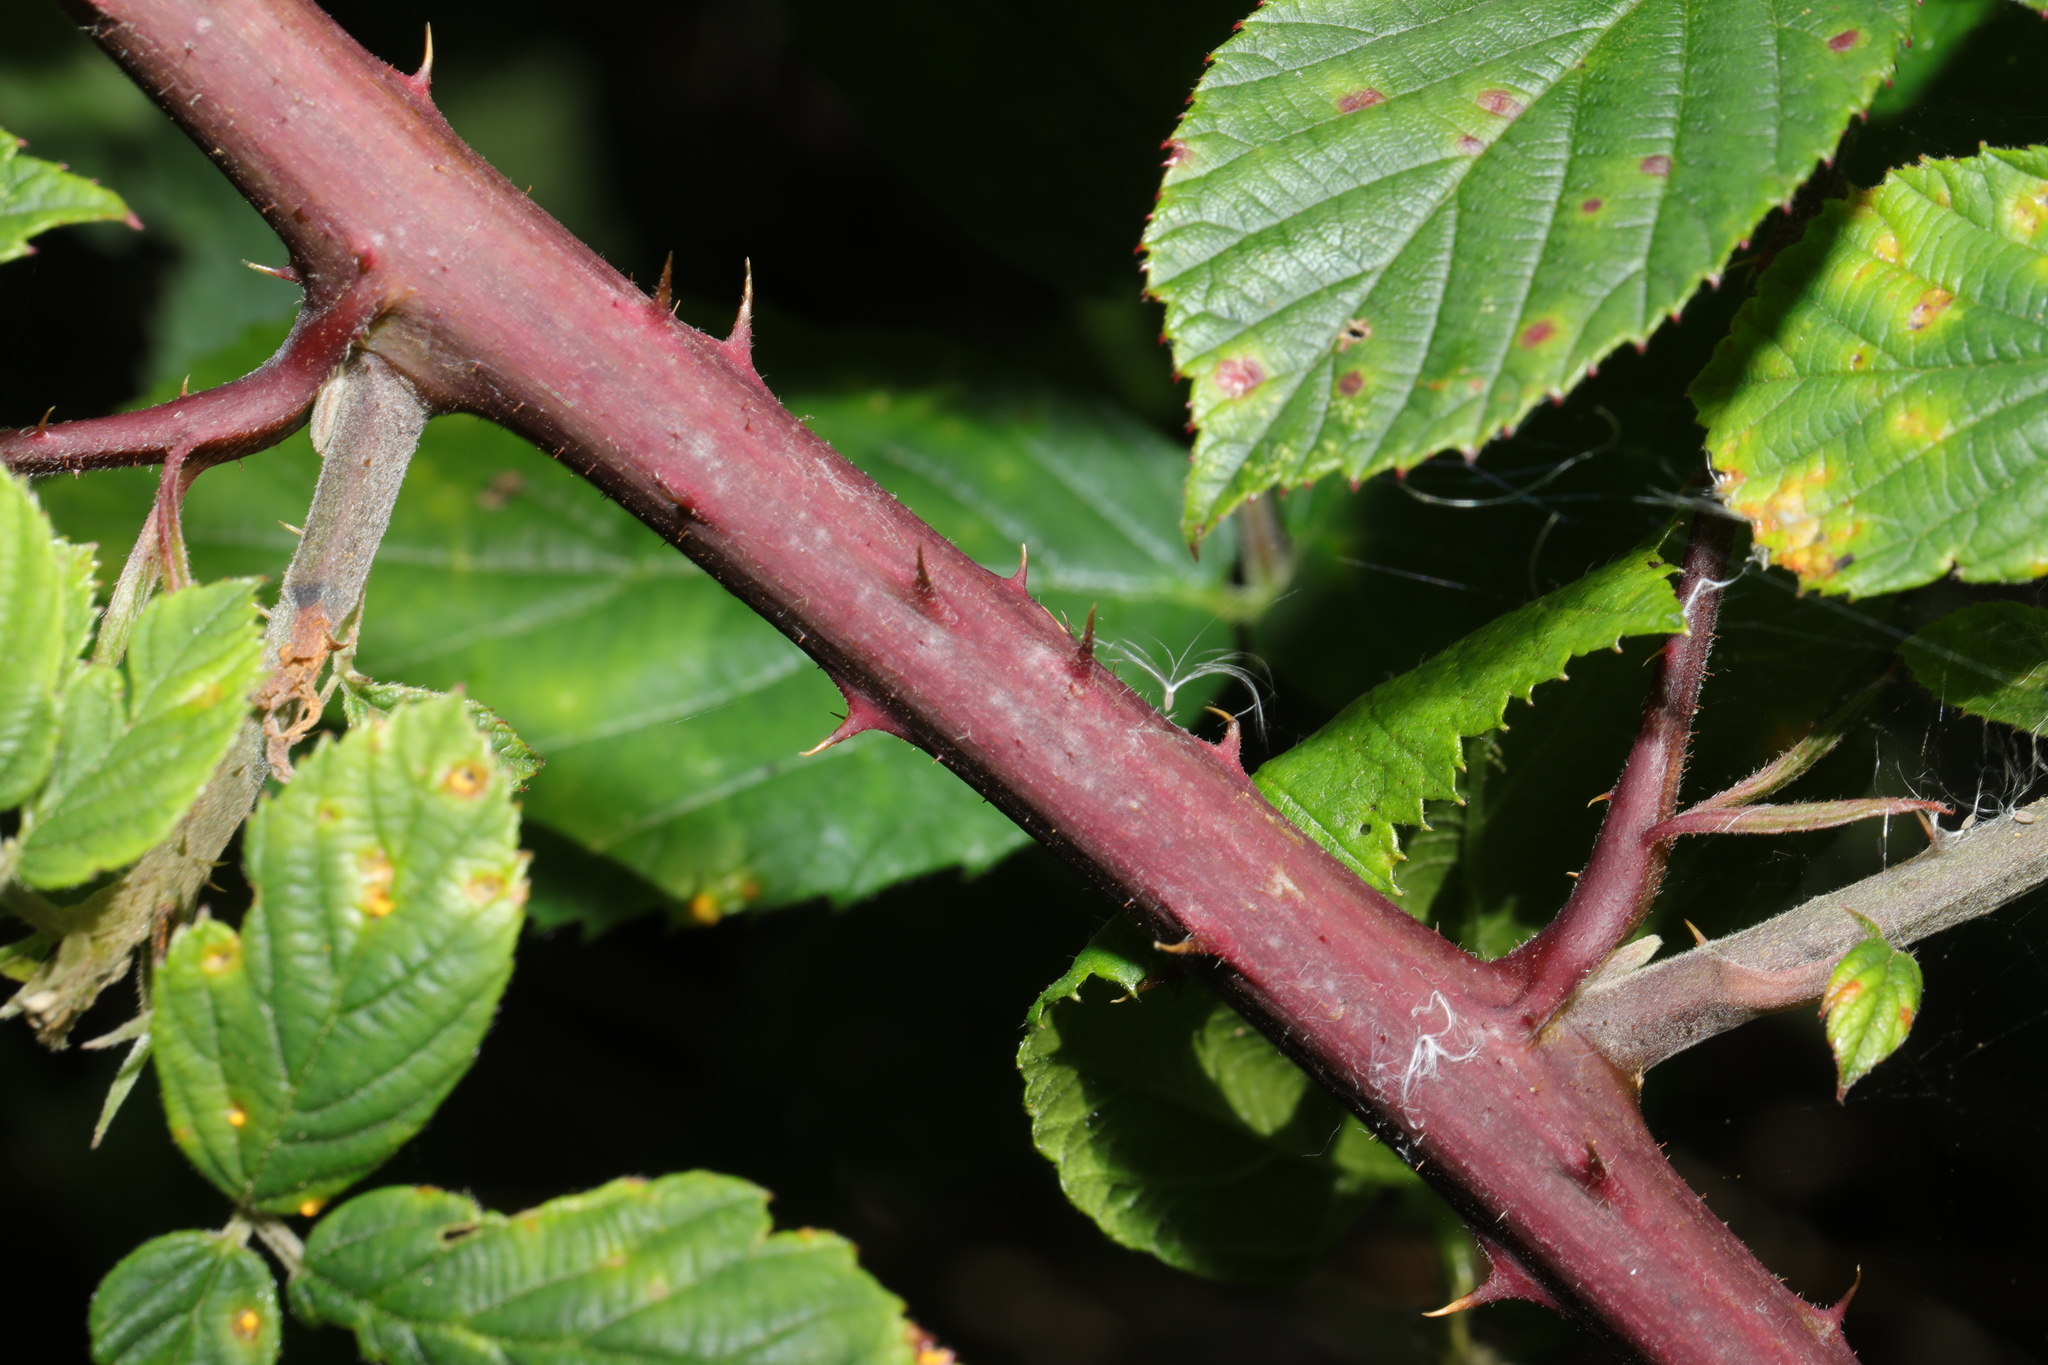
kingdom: Plantae
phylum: Tracheophyta
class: Magnoliopsida
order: Rosales
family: Rosaceae
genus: Rubus
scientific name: Rubus wirralensis
